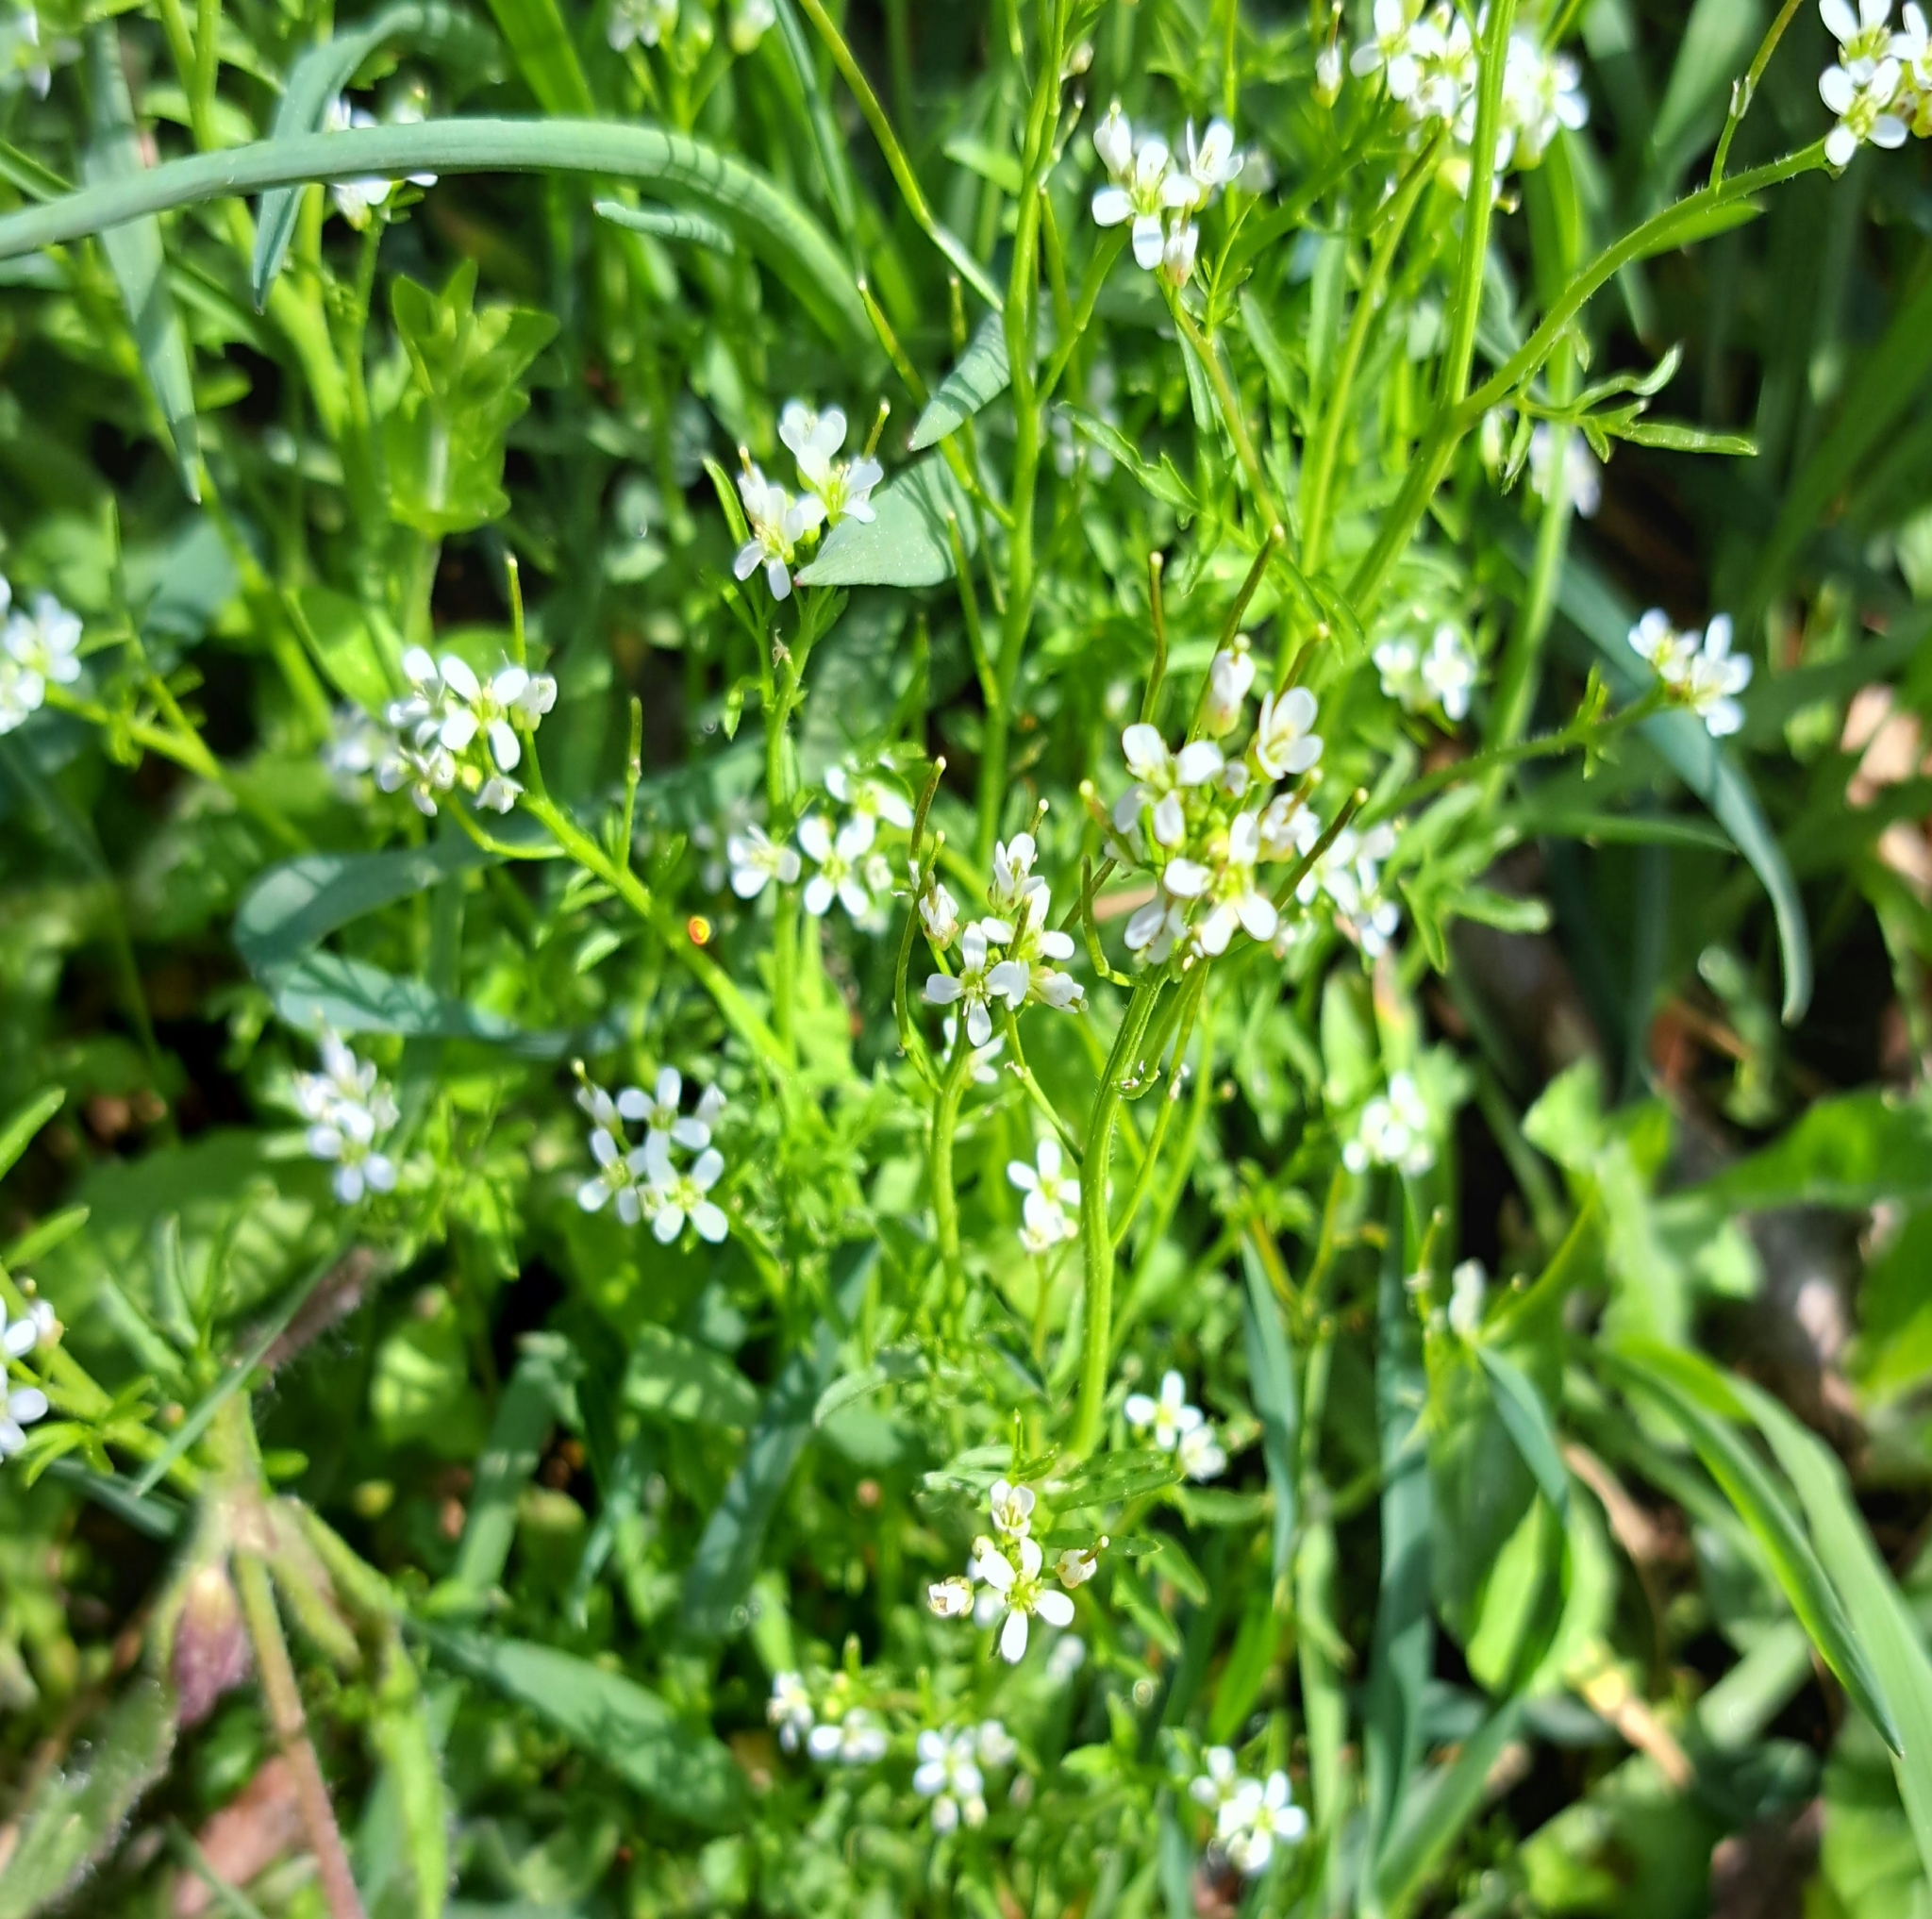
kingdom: Plantae
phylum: Tracheophyta
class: Magnoliopsida
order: Brassicales
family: Brassicaceae
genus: Cardamine
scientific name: Cardamine flexuosa
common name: Woodland bittercress
